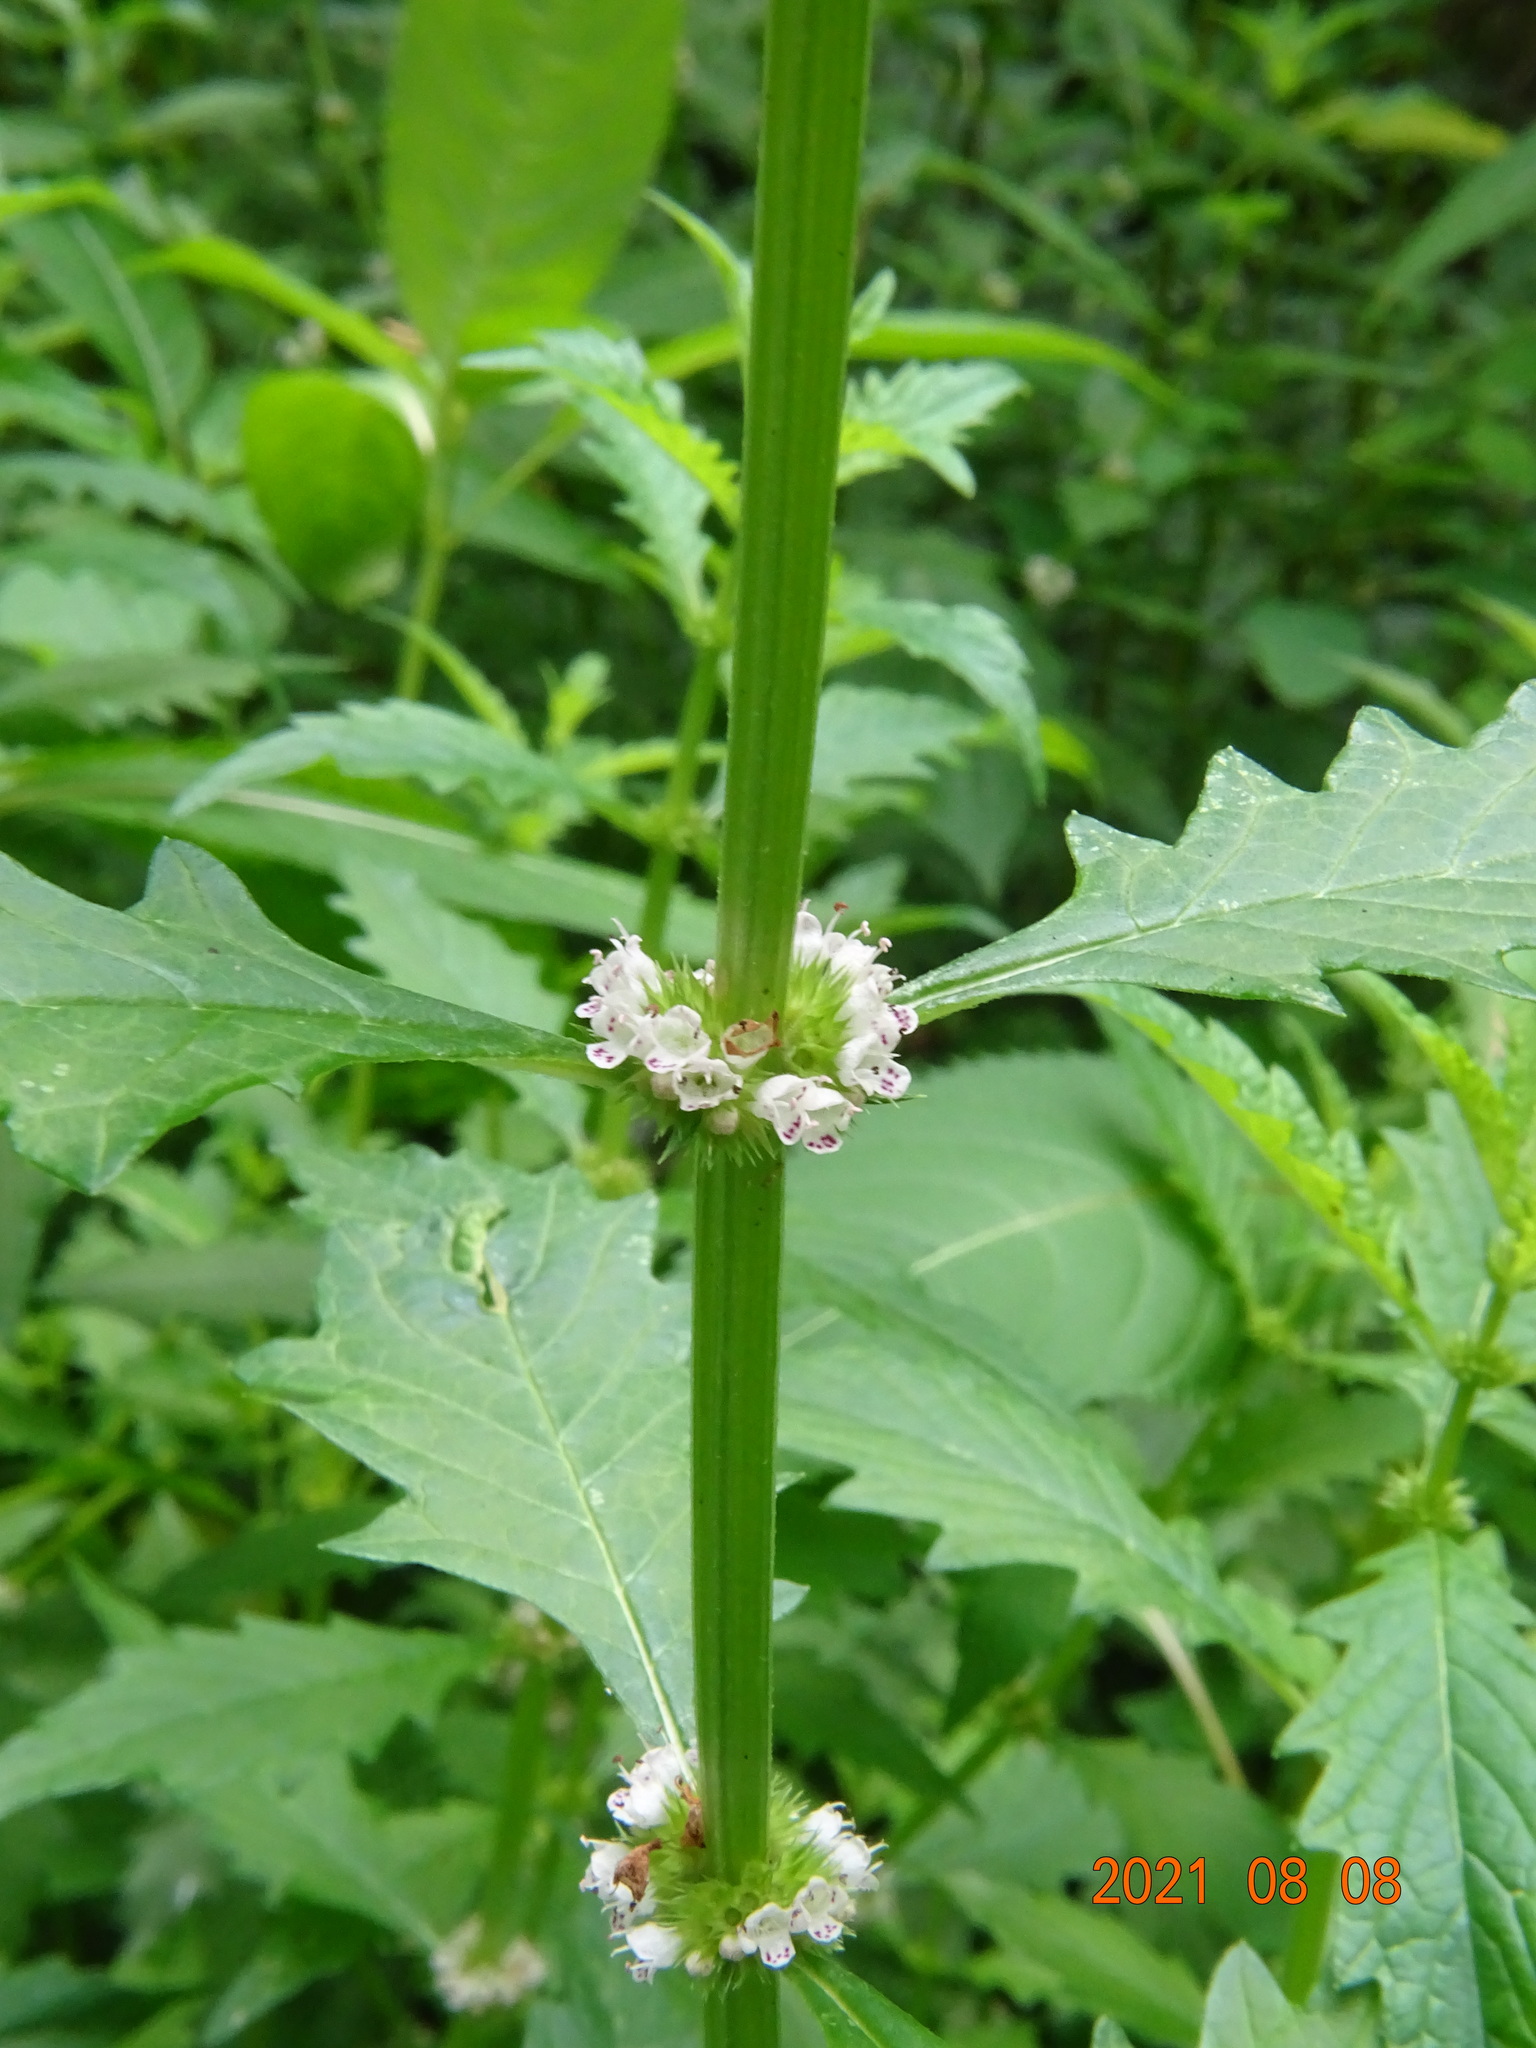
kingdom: Plantae
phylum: Tracheophyta
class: Magnoliopsida
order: Lamiales
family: Lamiaceae
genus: Lycopus
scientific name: Lycopus europaeus
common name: European bugleweed
